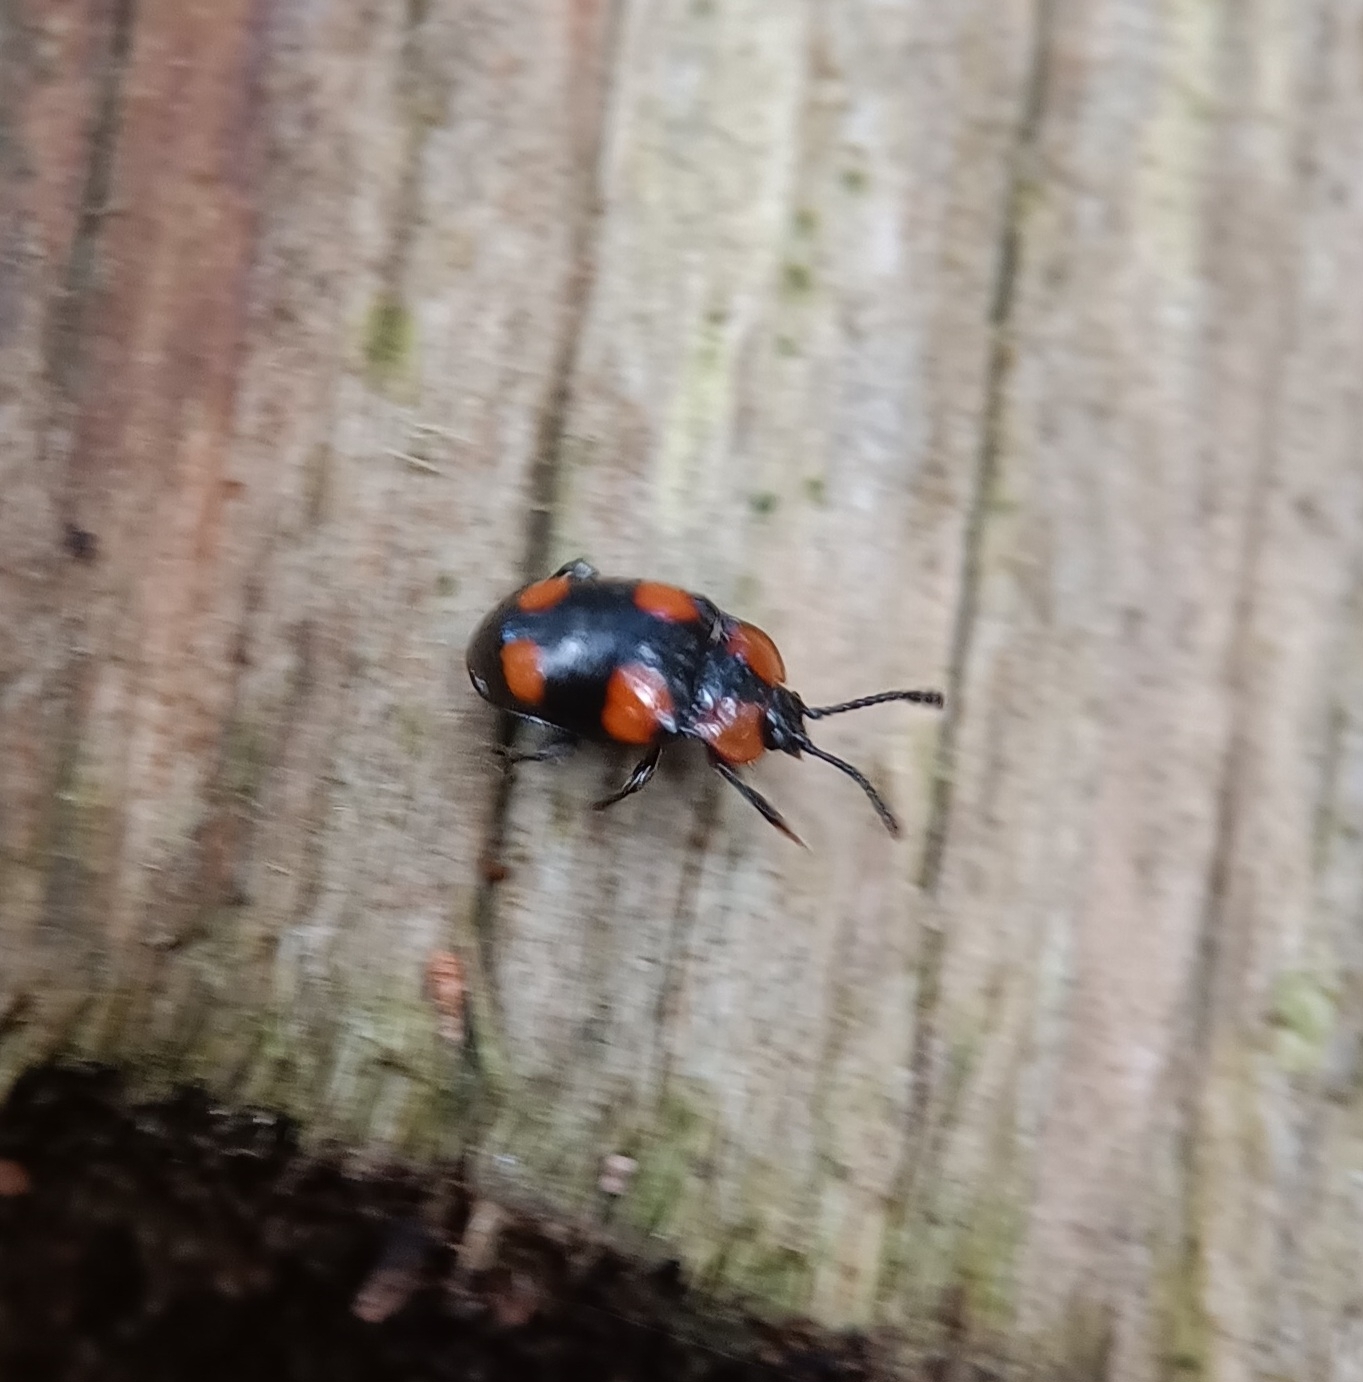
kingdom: Animalia
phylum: Arthropoda
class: Insecta
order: Coleoptera
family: Endomychidae
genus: Mycetina
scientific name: Mycetina perpulchra
